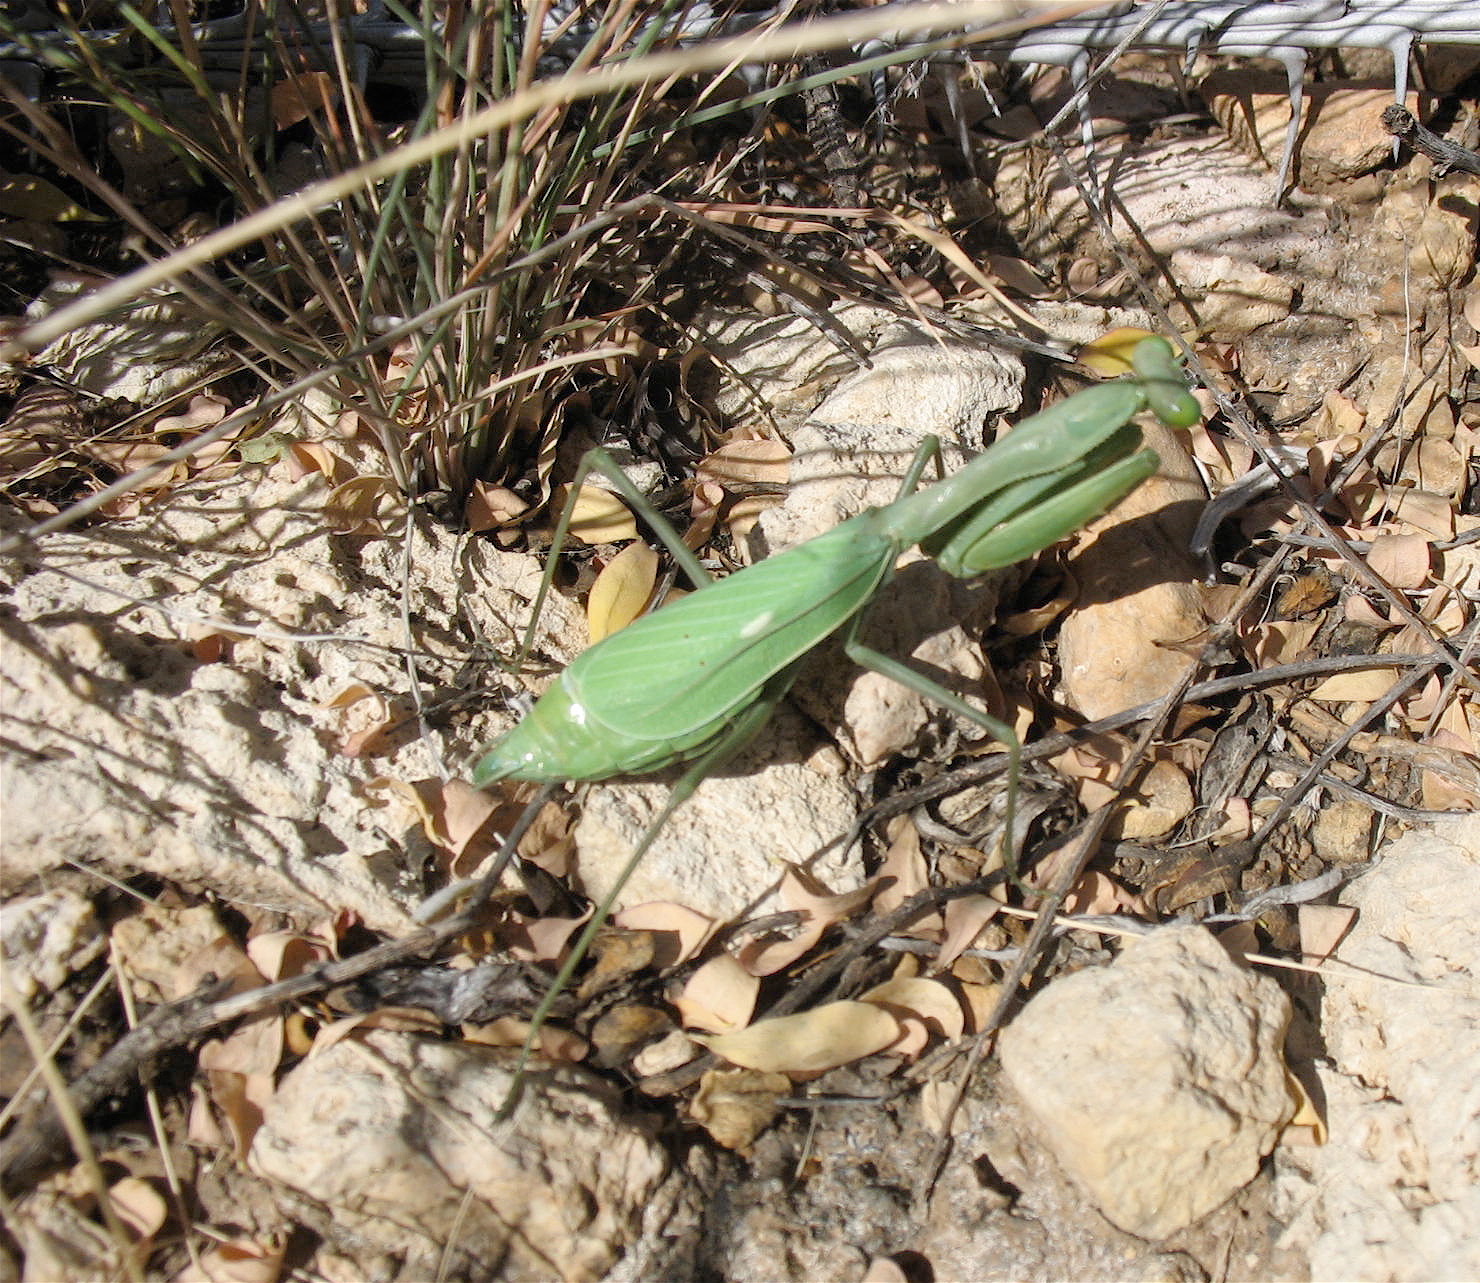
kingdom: Animalia
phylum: Arthropoda
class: Insecta
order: Mantodea
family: Mantidae
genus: Stagmomantis
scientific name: Stagmomantis limbata
